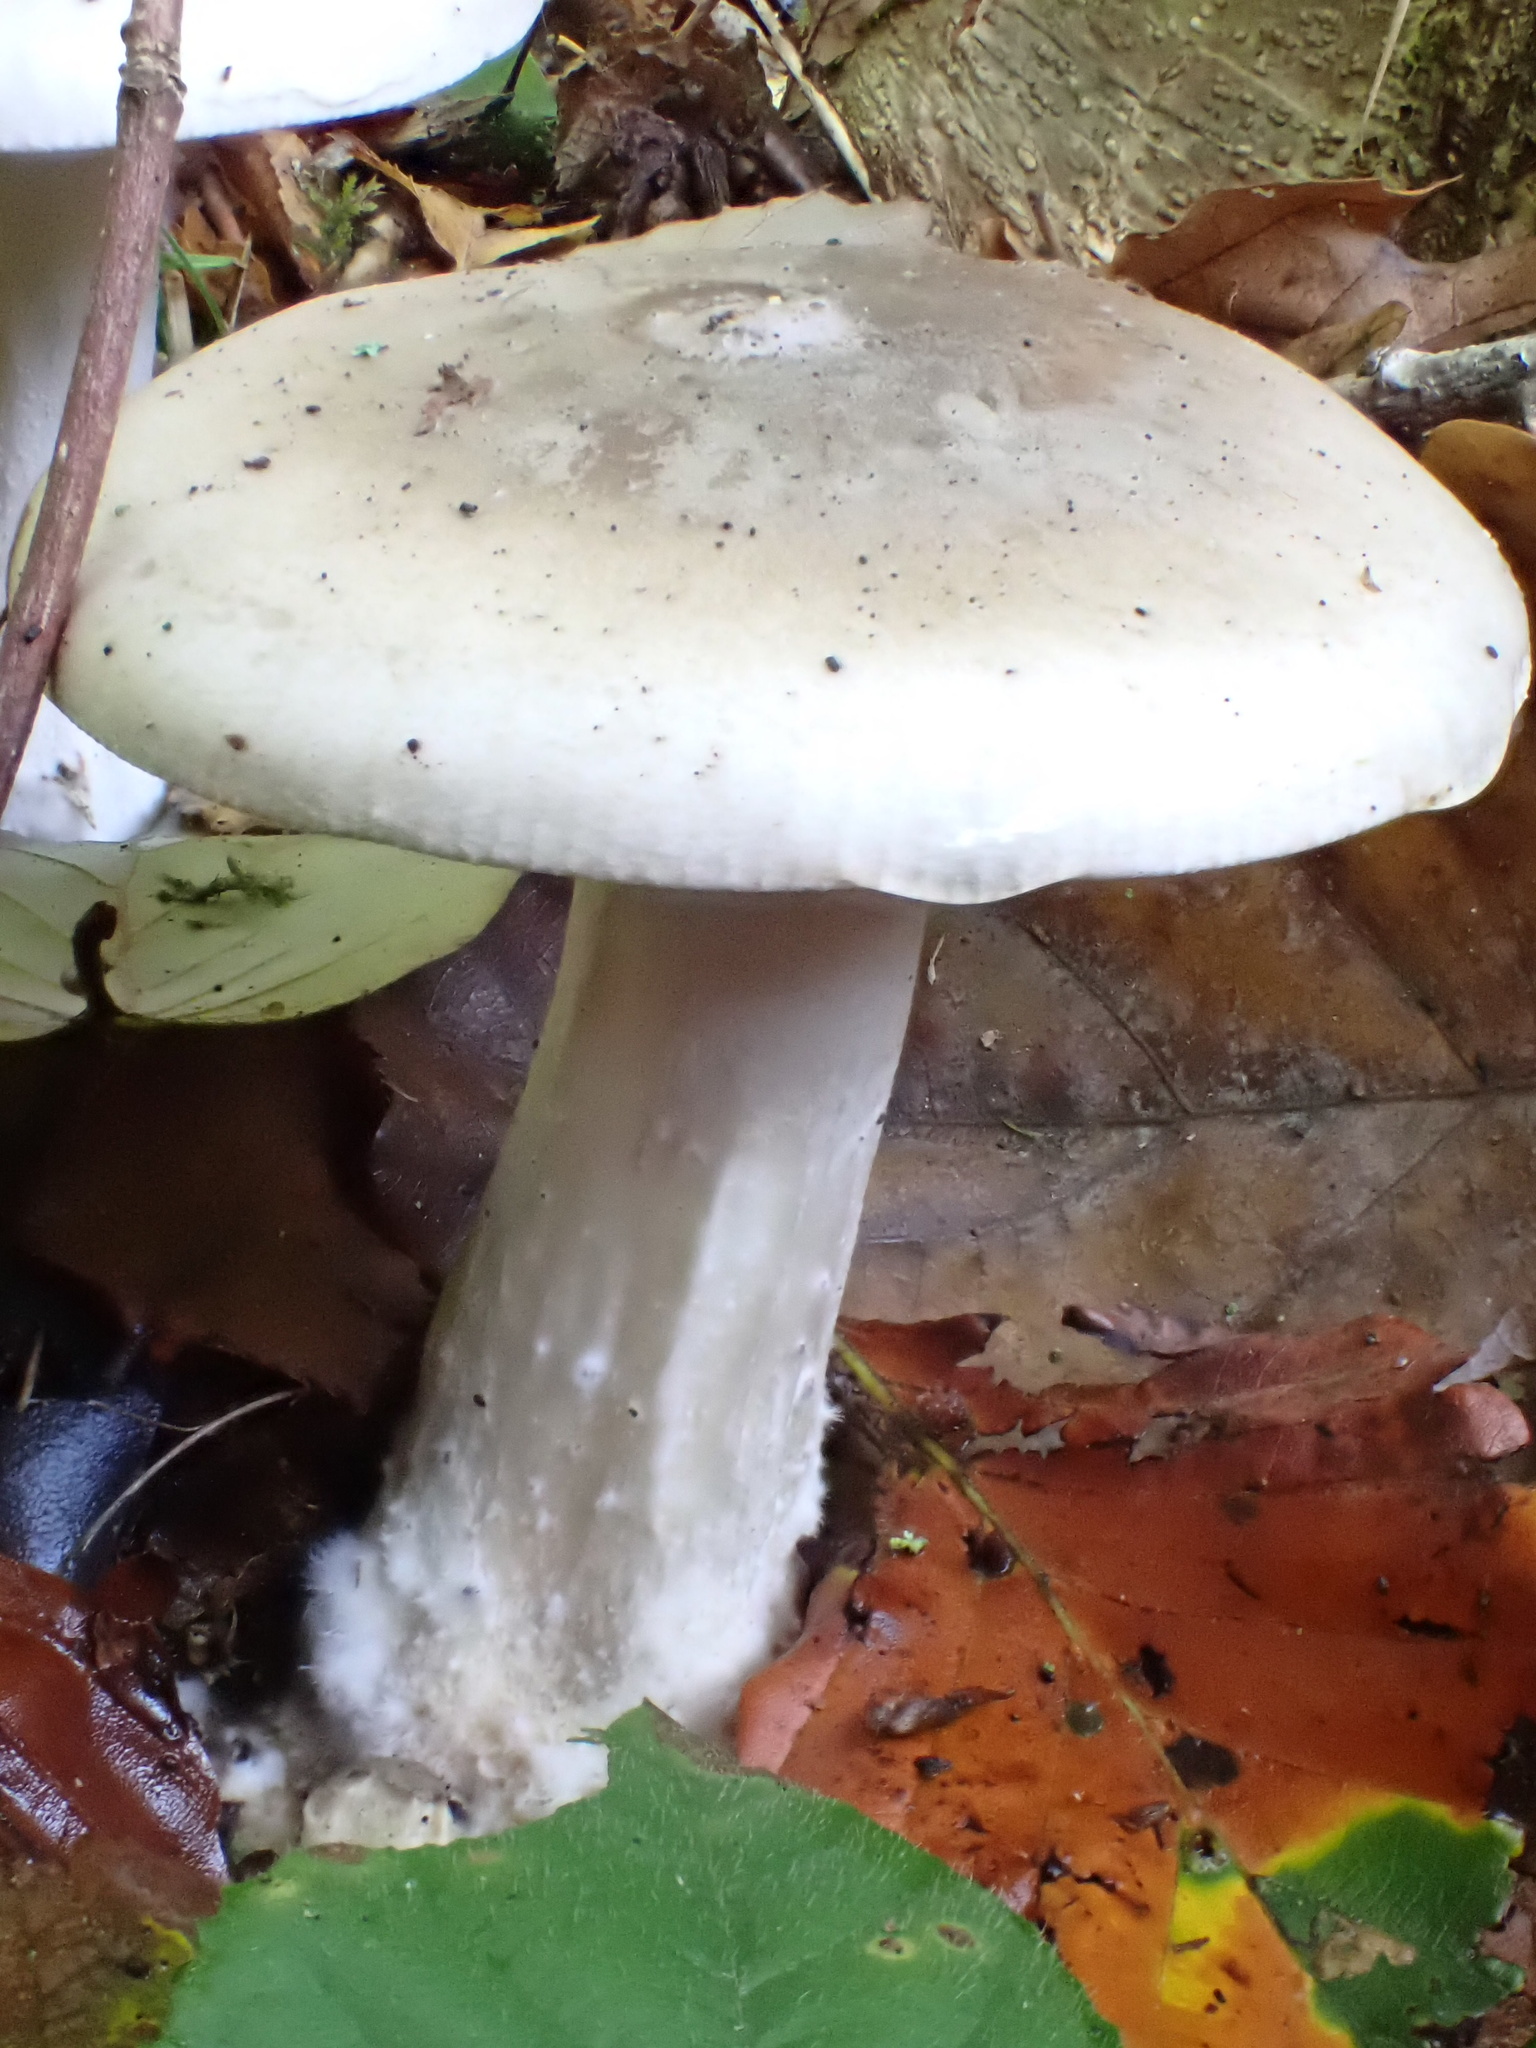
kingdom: Fungi
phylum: Basidiomycota
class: Agaricomycetes
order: Agaricales
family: Tricholomataceae
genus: Clitocybe
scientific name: Clitocybe nebularis
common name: Clouded agaric
